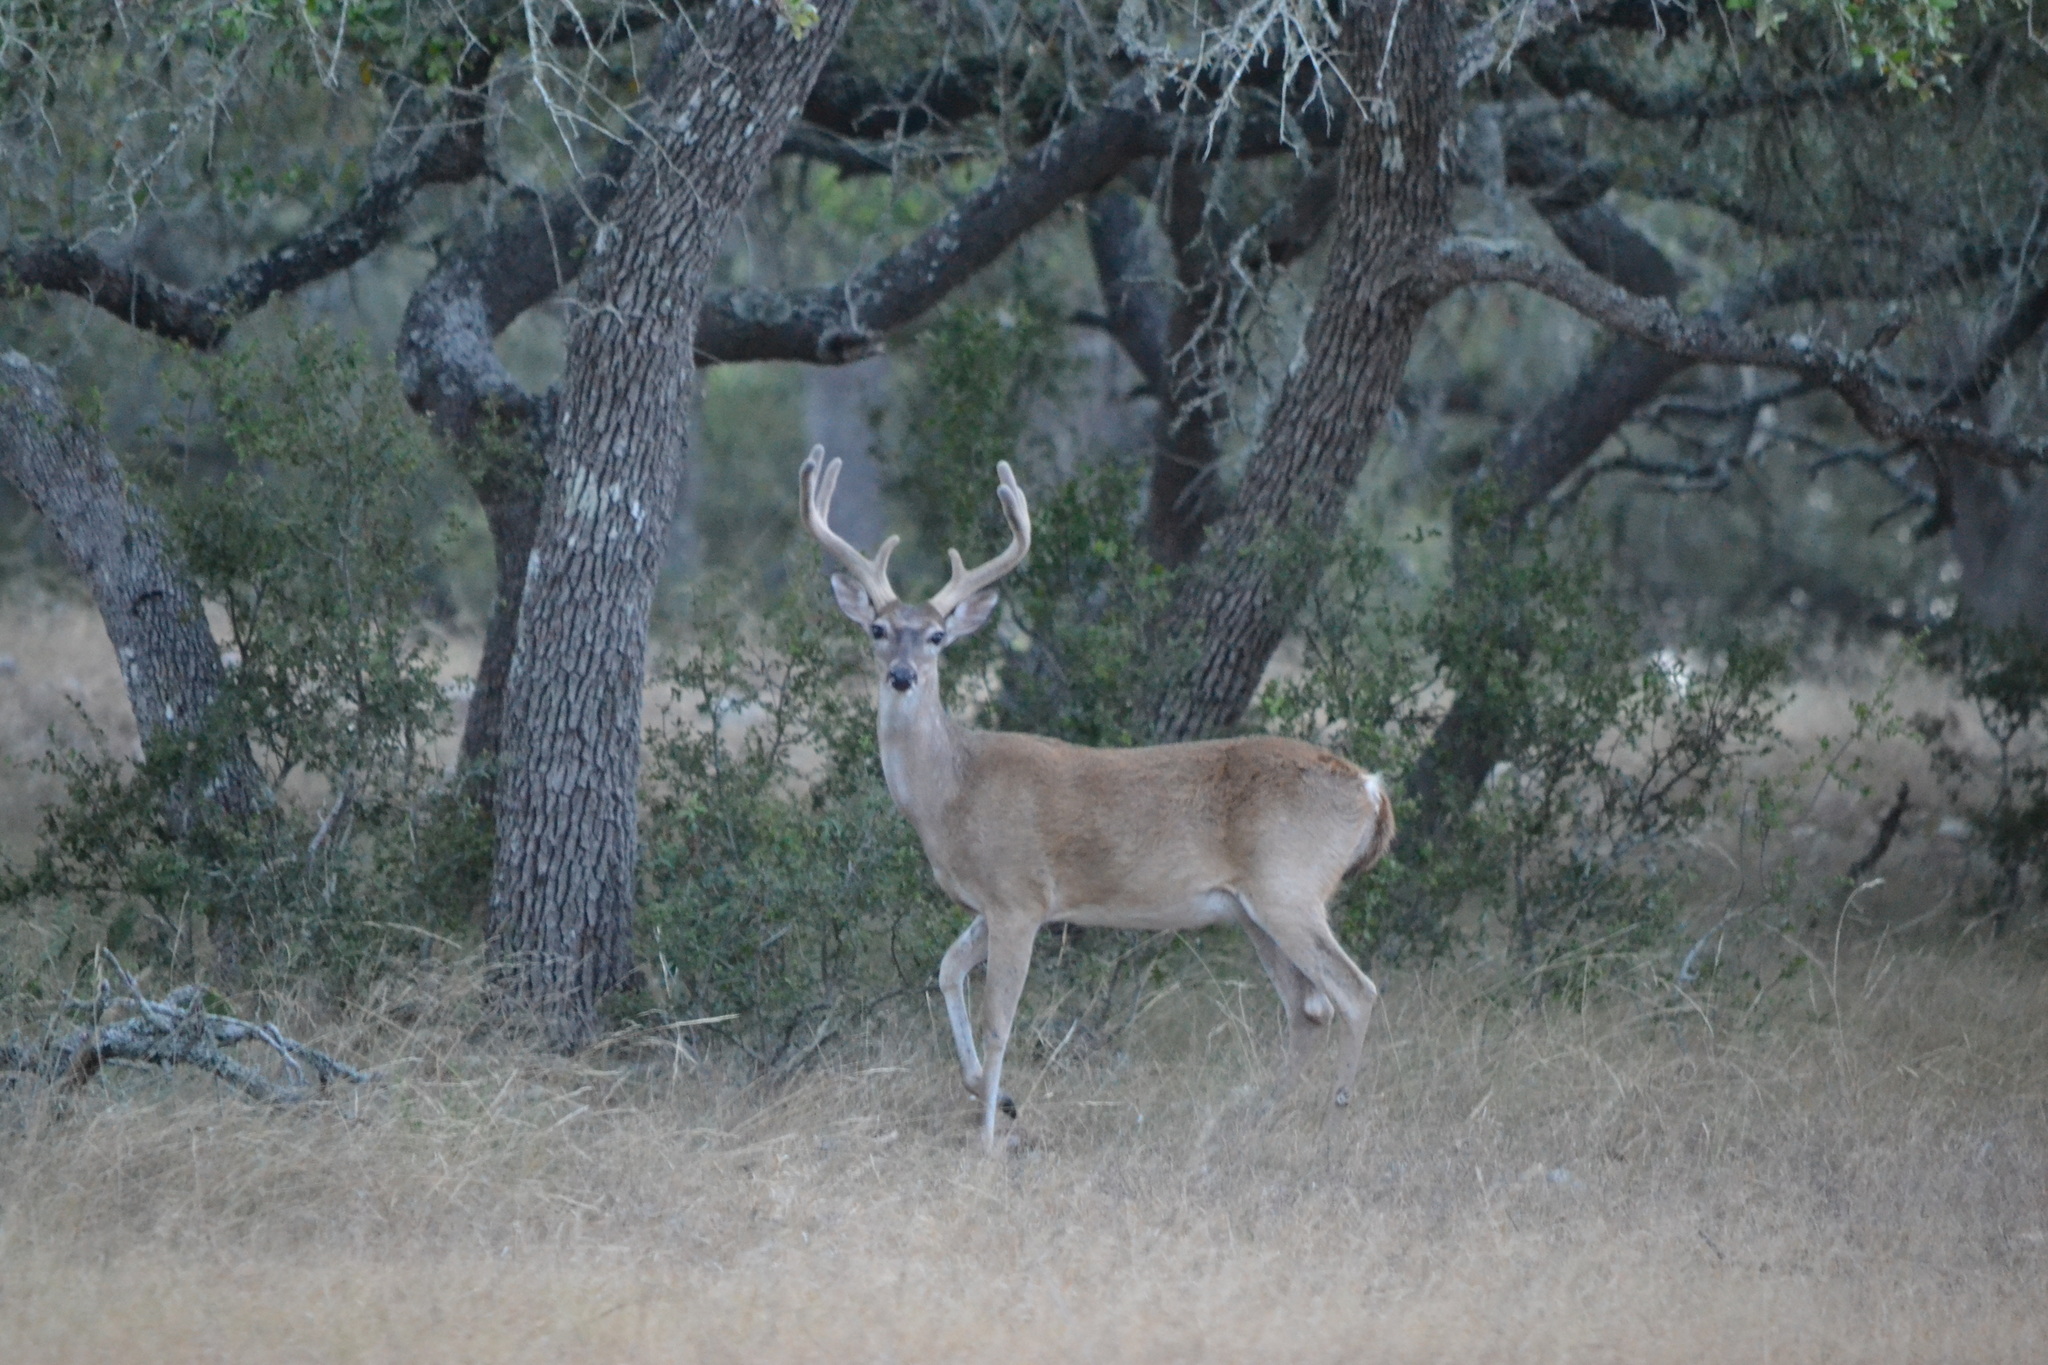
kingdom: Animalia
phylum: Chordata
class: Mammalia
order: Artiodactyla
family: Cervidae
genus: Odocoileus
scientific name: Odocoileus virginianus
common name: White-tailed deer
